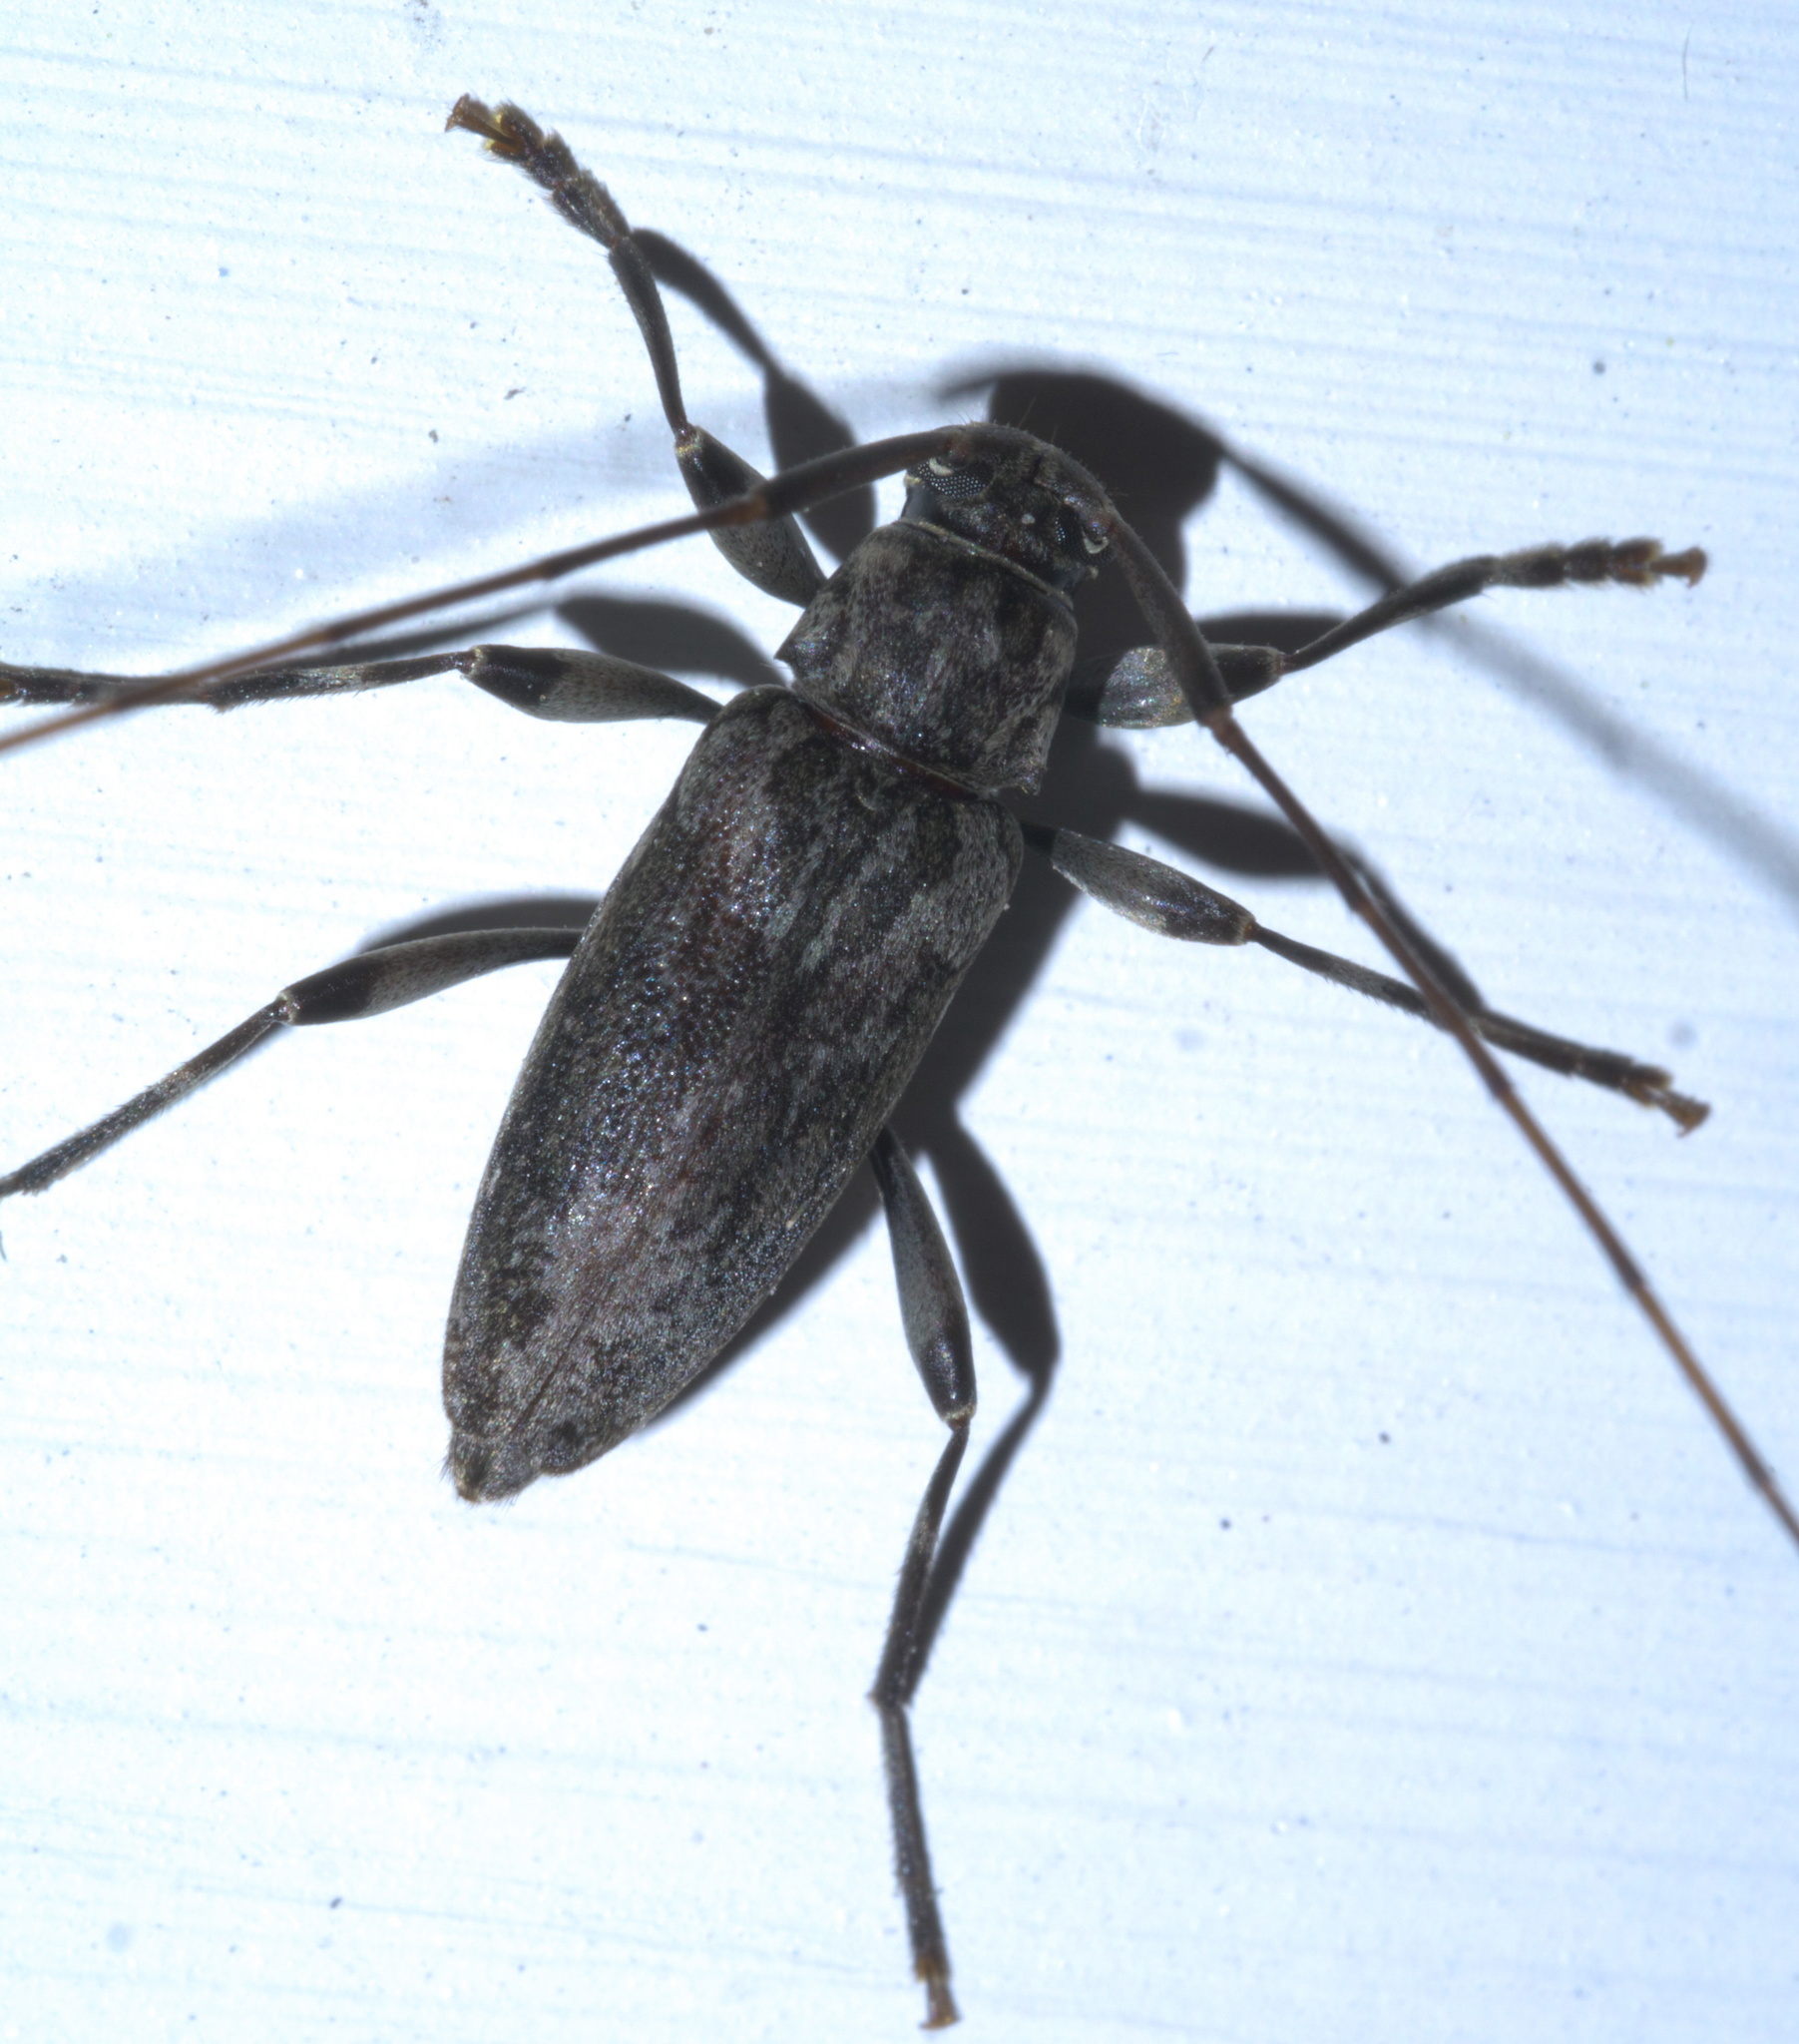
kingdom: Animalia
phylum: Arthropoda
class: Insecta
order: Coleoptera
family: Cerambycidae
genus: Lepturges
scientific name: Lepturges confluens
